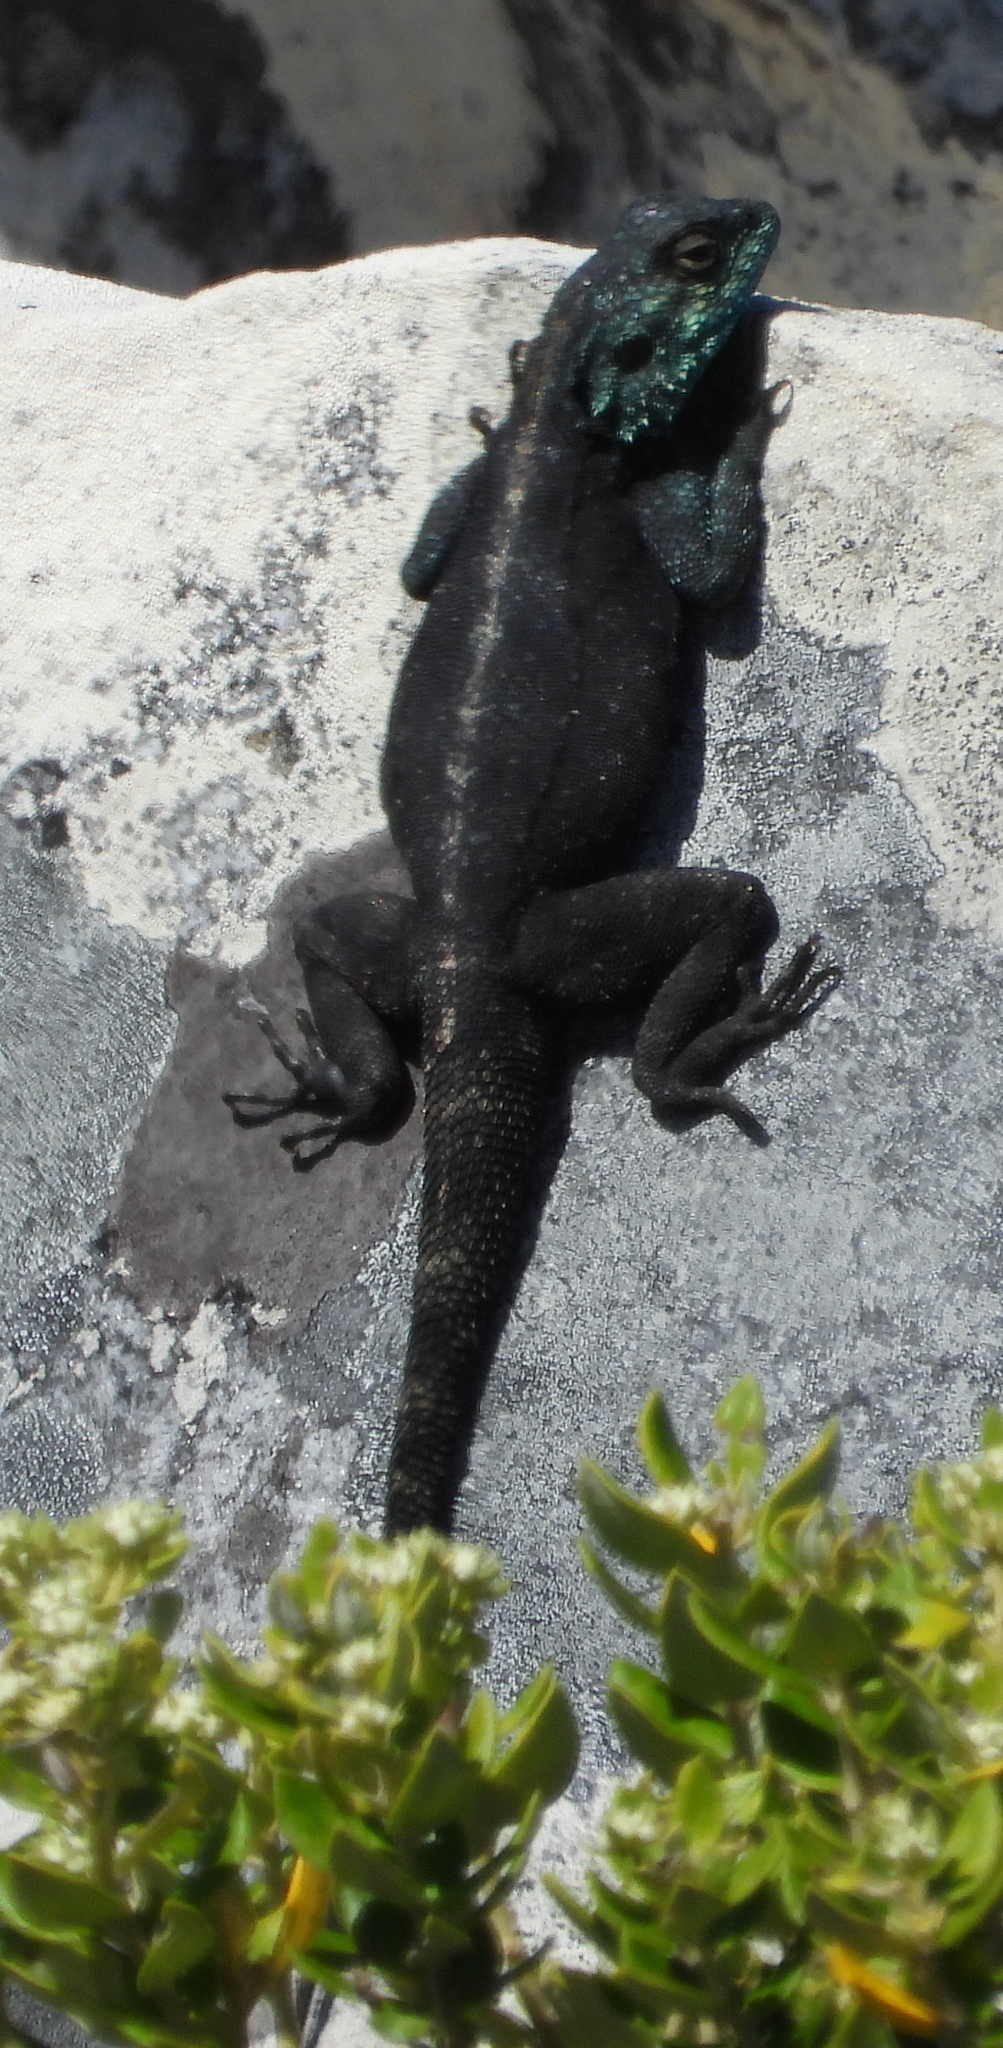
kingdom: Animalia
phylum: Chordata
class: Squamata
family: Agamidae
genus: Agama
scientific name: Agama atra
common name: Southern african rock agama
